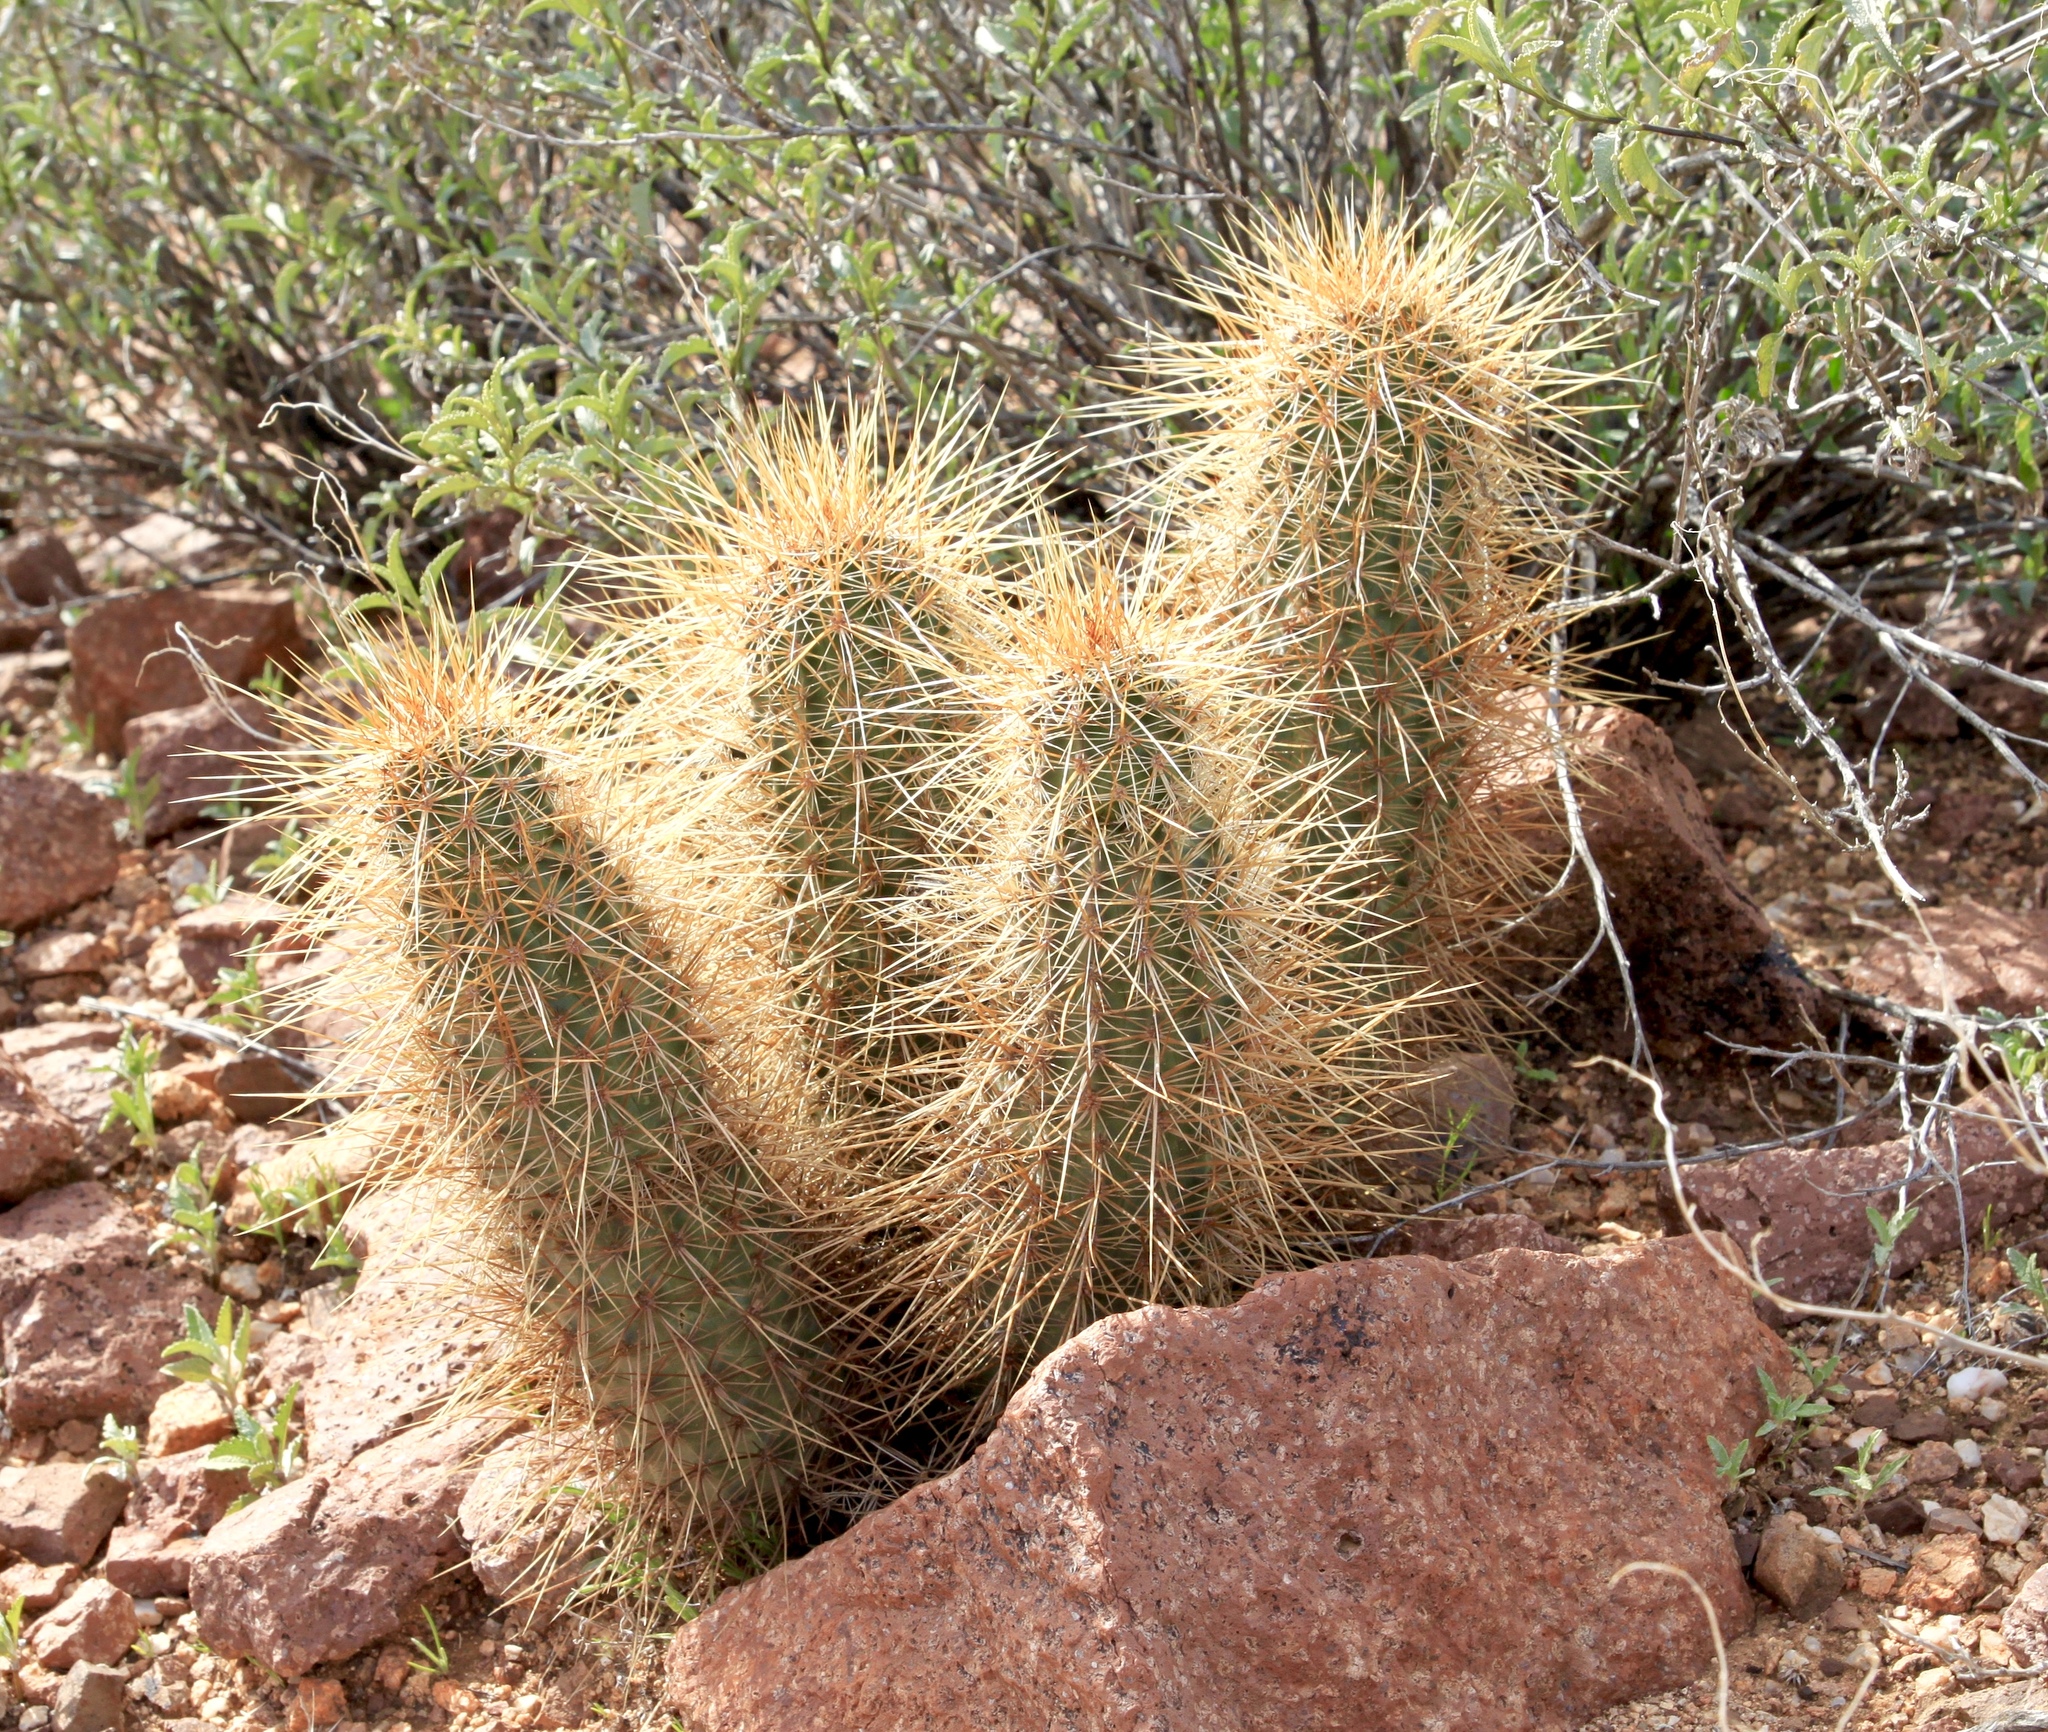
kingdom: Plantae
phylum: Tracheophyta
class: Magnoliopsida
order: Caryophyllales
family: Cactaceae
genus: Echinocereus
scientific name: Echinocereus engelmannii
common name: Engelmann's hedgehog cactus
